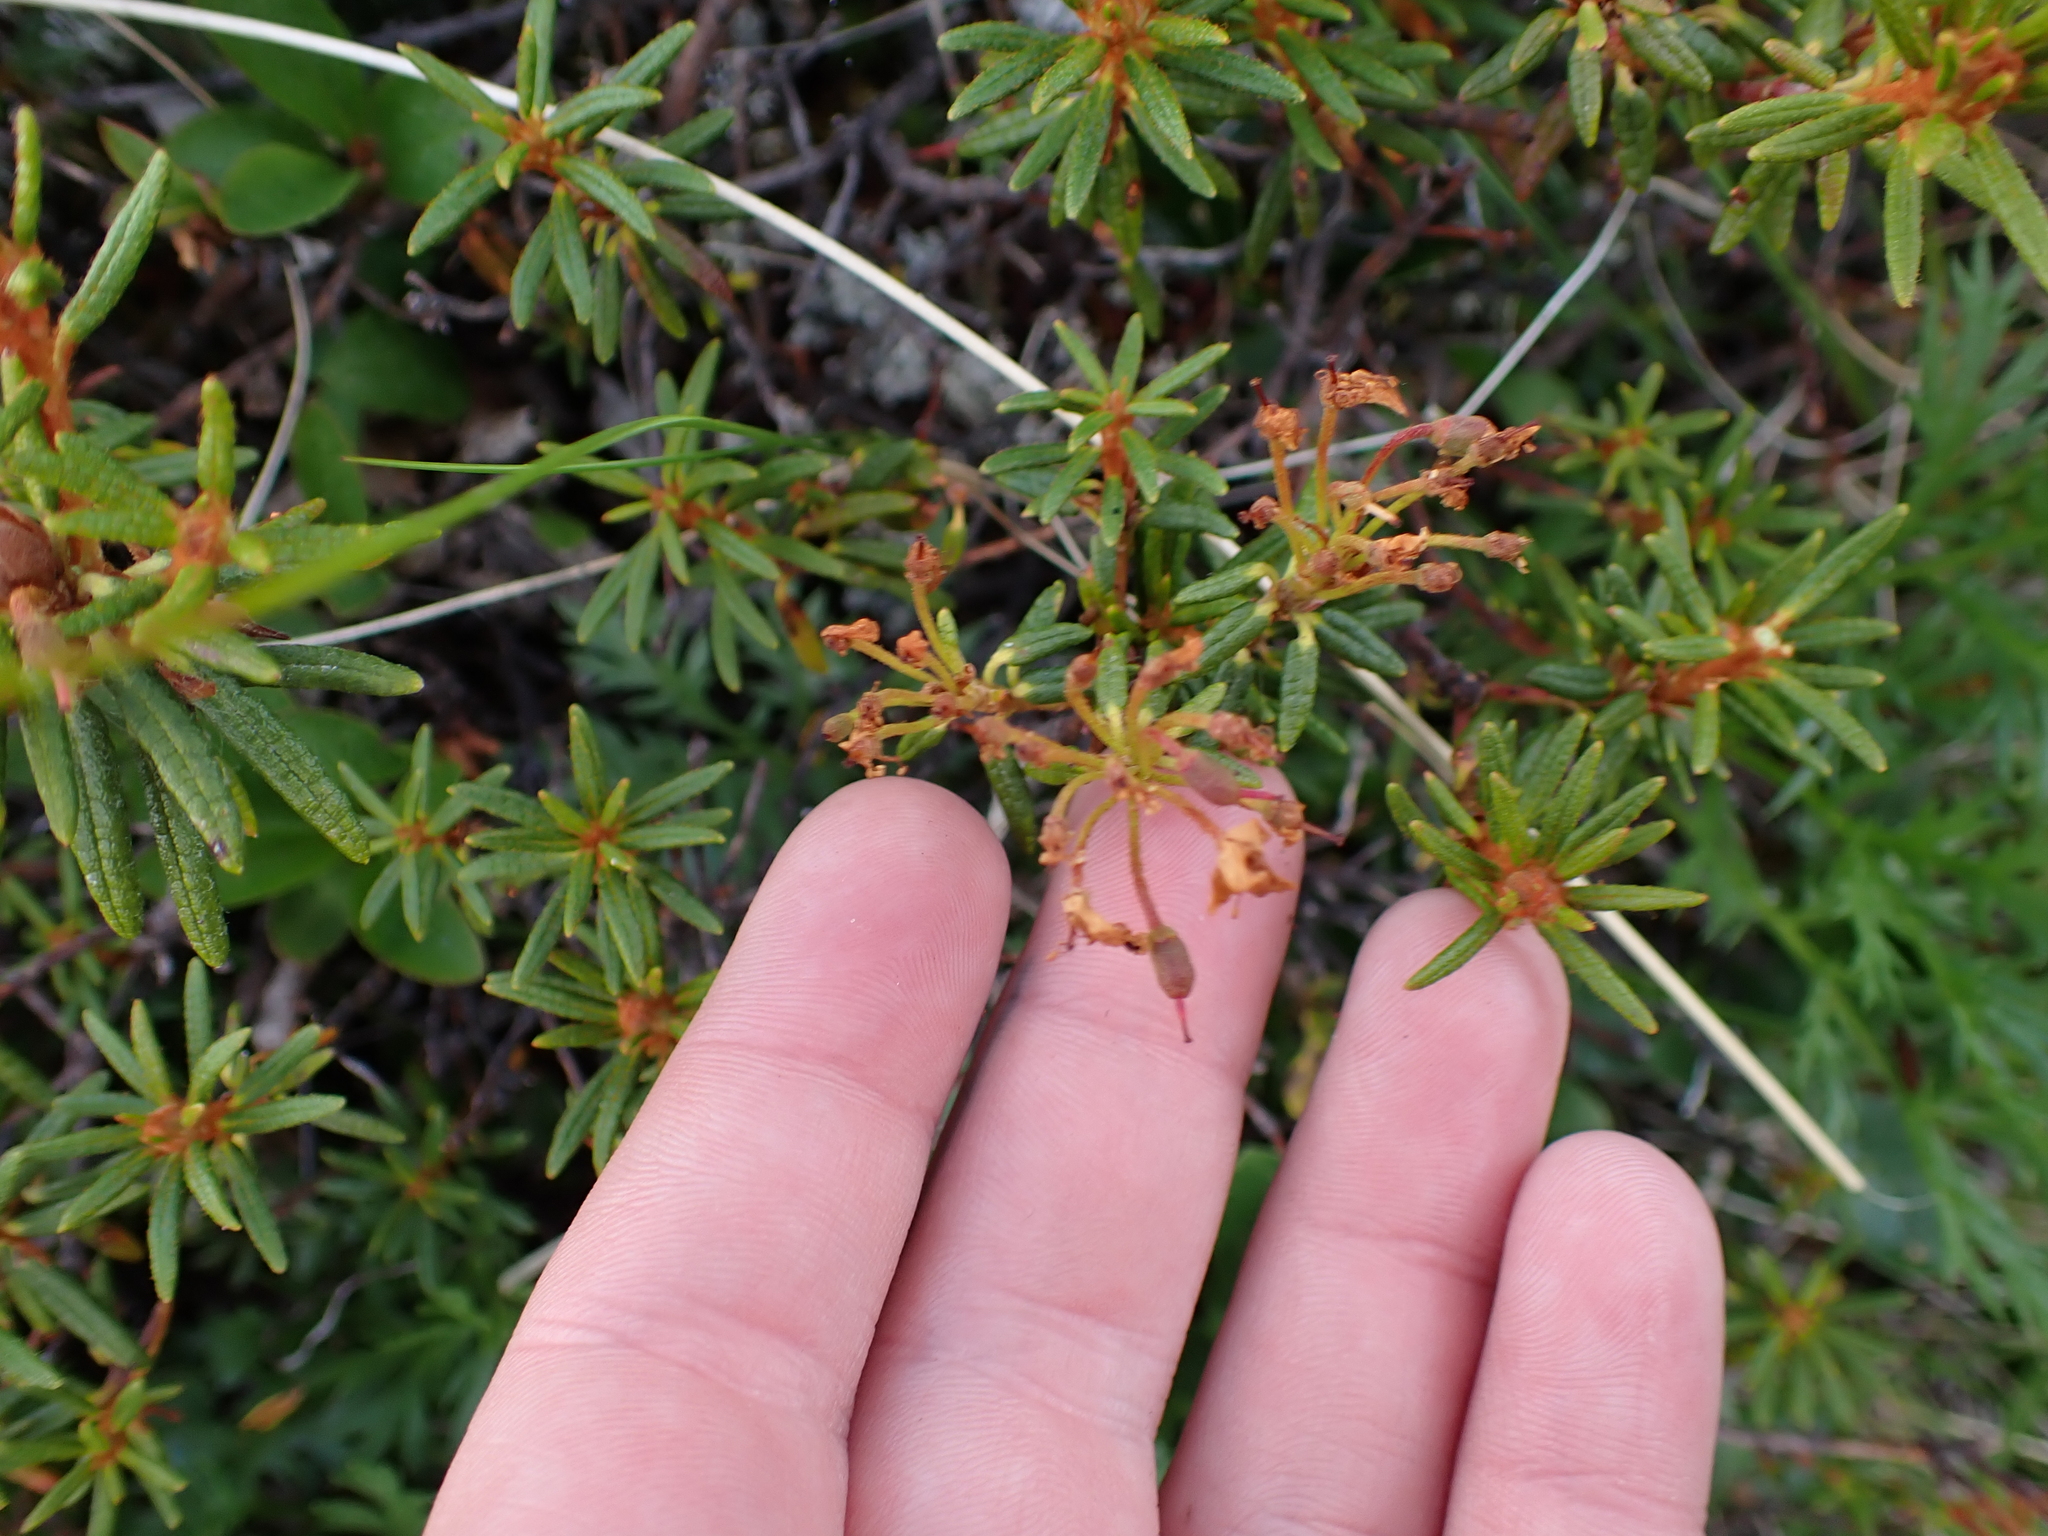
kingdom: Plantae
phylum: Tracheophyta
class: Magnoliopsida
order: Ericales
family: Ericaceae
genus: Rhododendron
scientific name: Rhododendron tomentosum
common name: Marsh labrador tea
